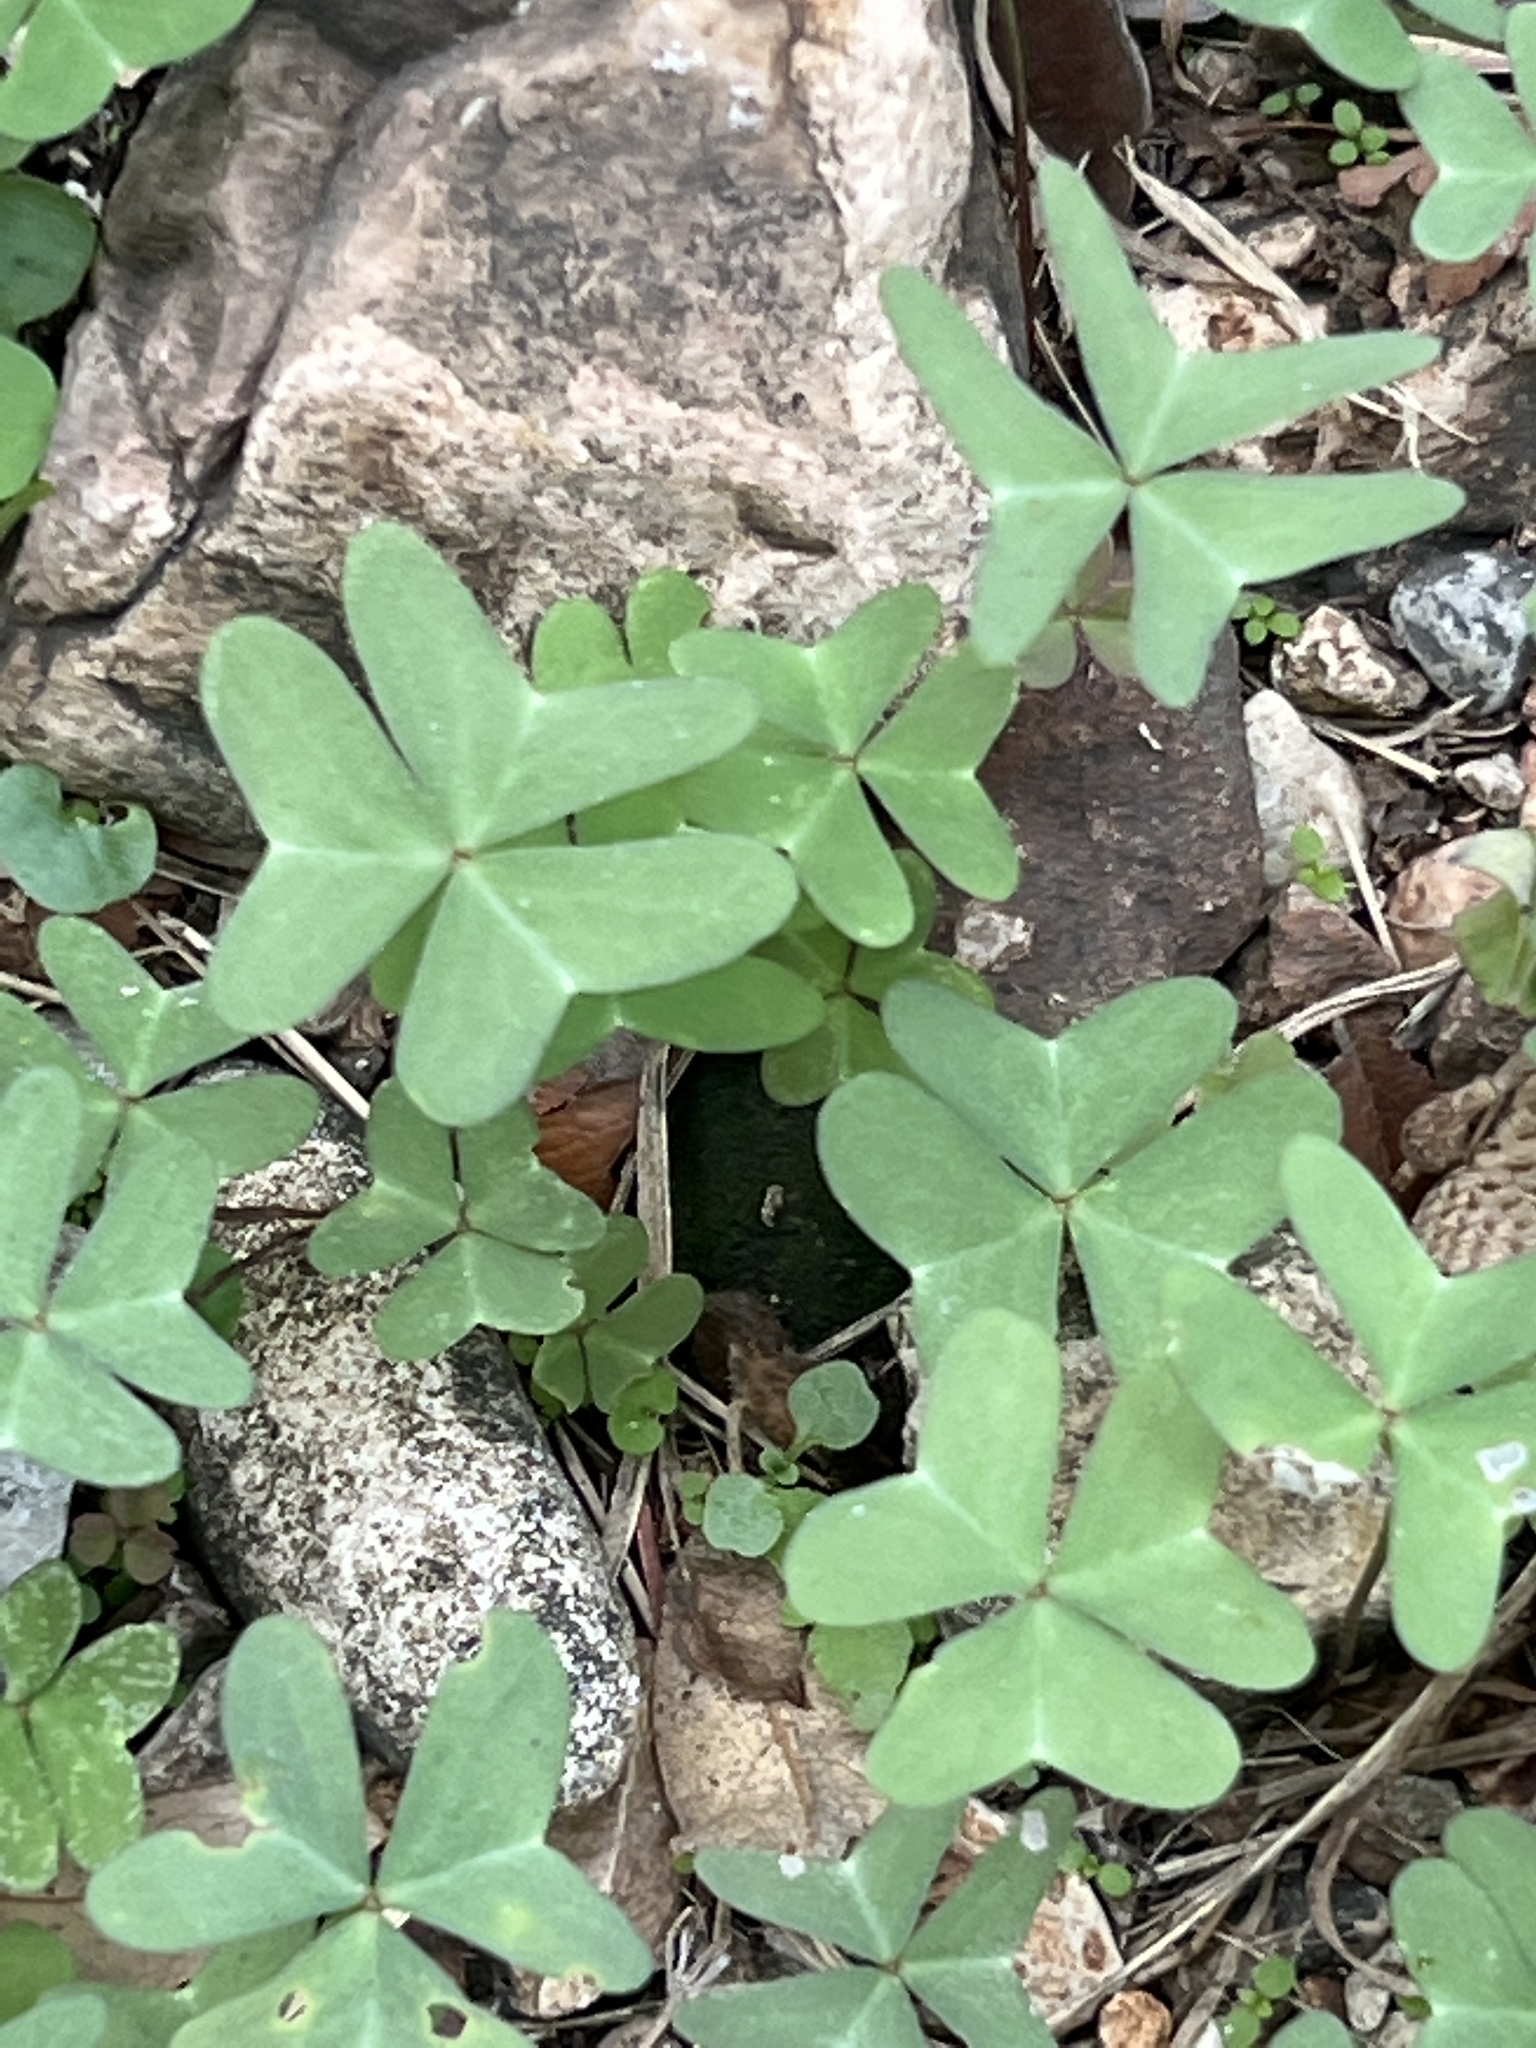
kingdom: Plantae
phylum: Tracheophyta
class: Magnoliopsida
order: Oxalidales
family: Oxalidaceae
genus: Oxalis
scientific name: Oxalis drummondii
